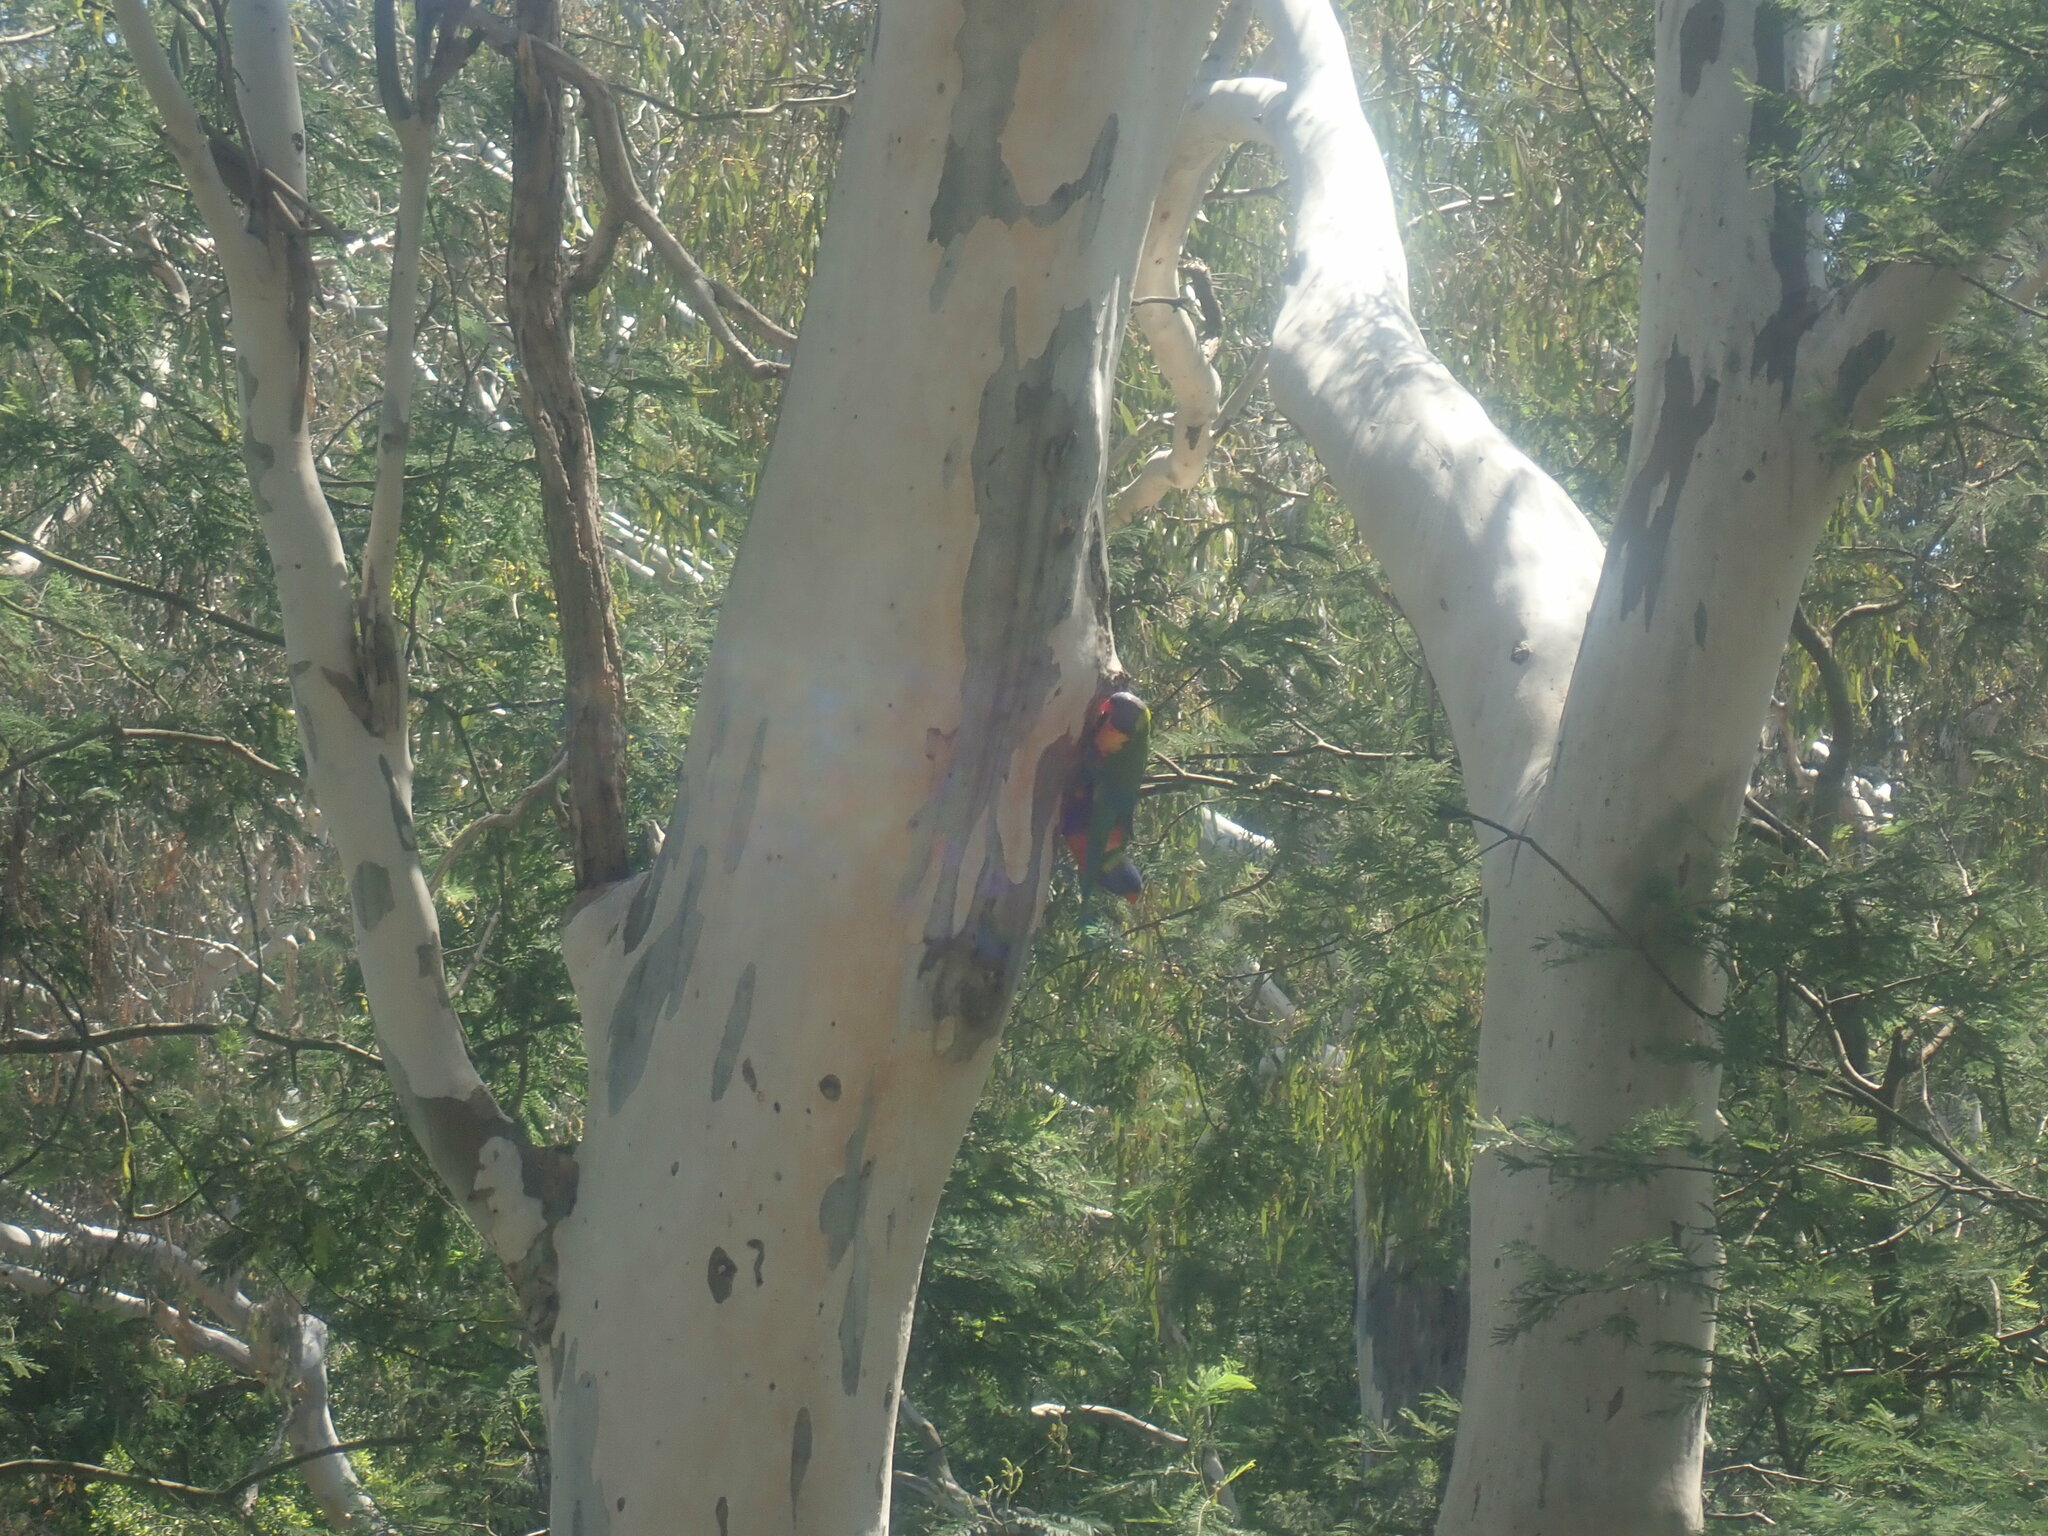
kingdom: Animalia
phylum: Chordata
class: Aves
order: Psittaciformes
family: Psittacidae
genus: Trichoglossus
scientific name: Trichoglossus haematodus
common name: Coconut lorikeet
